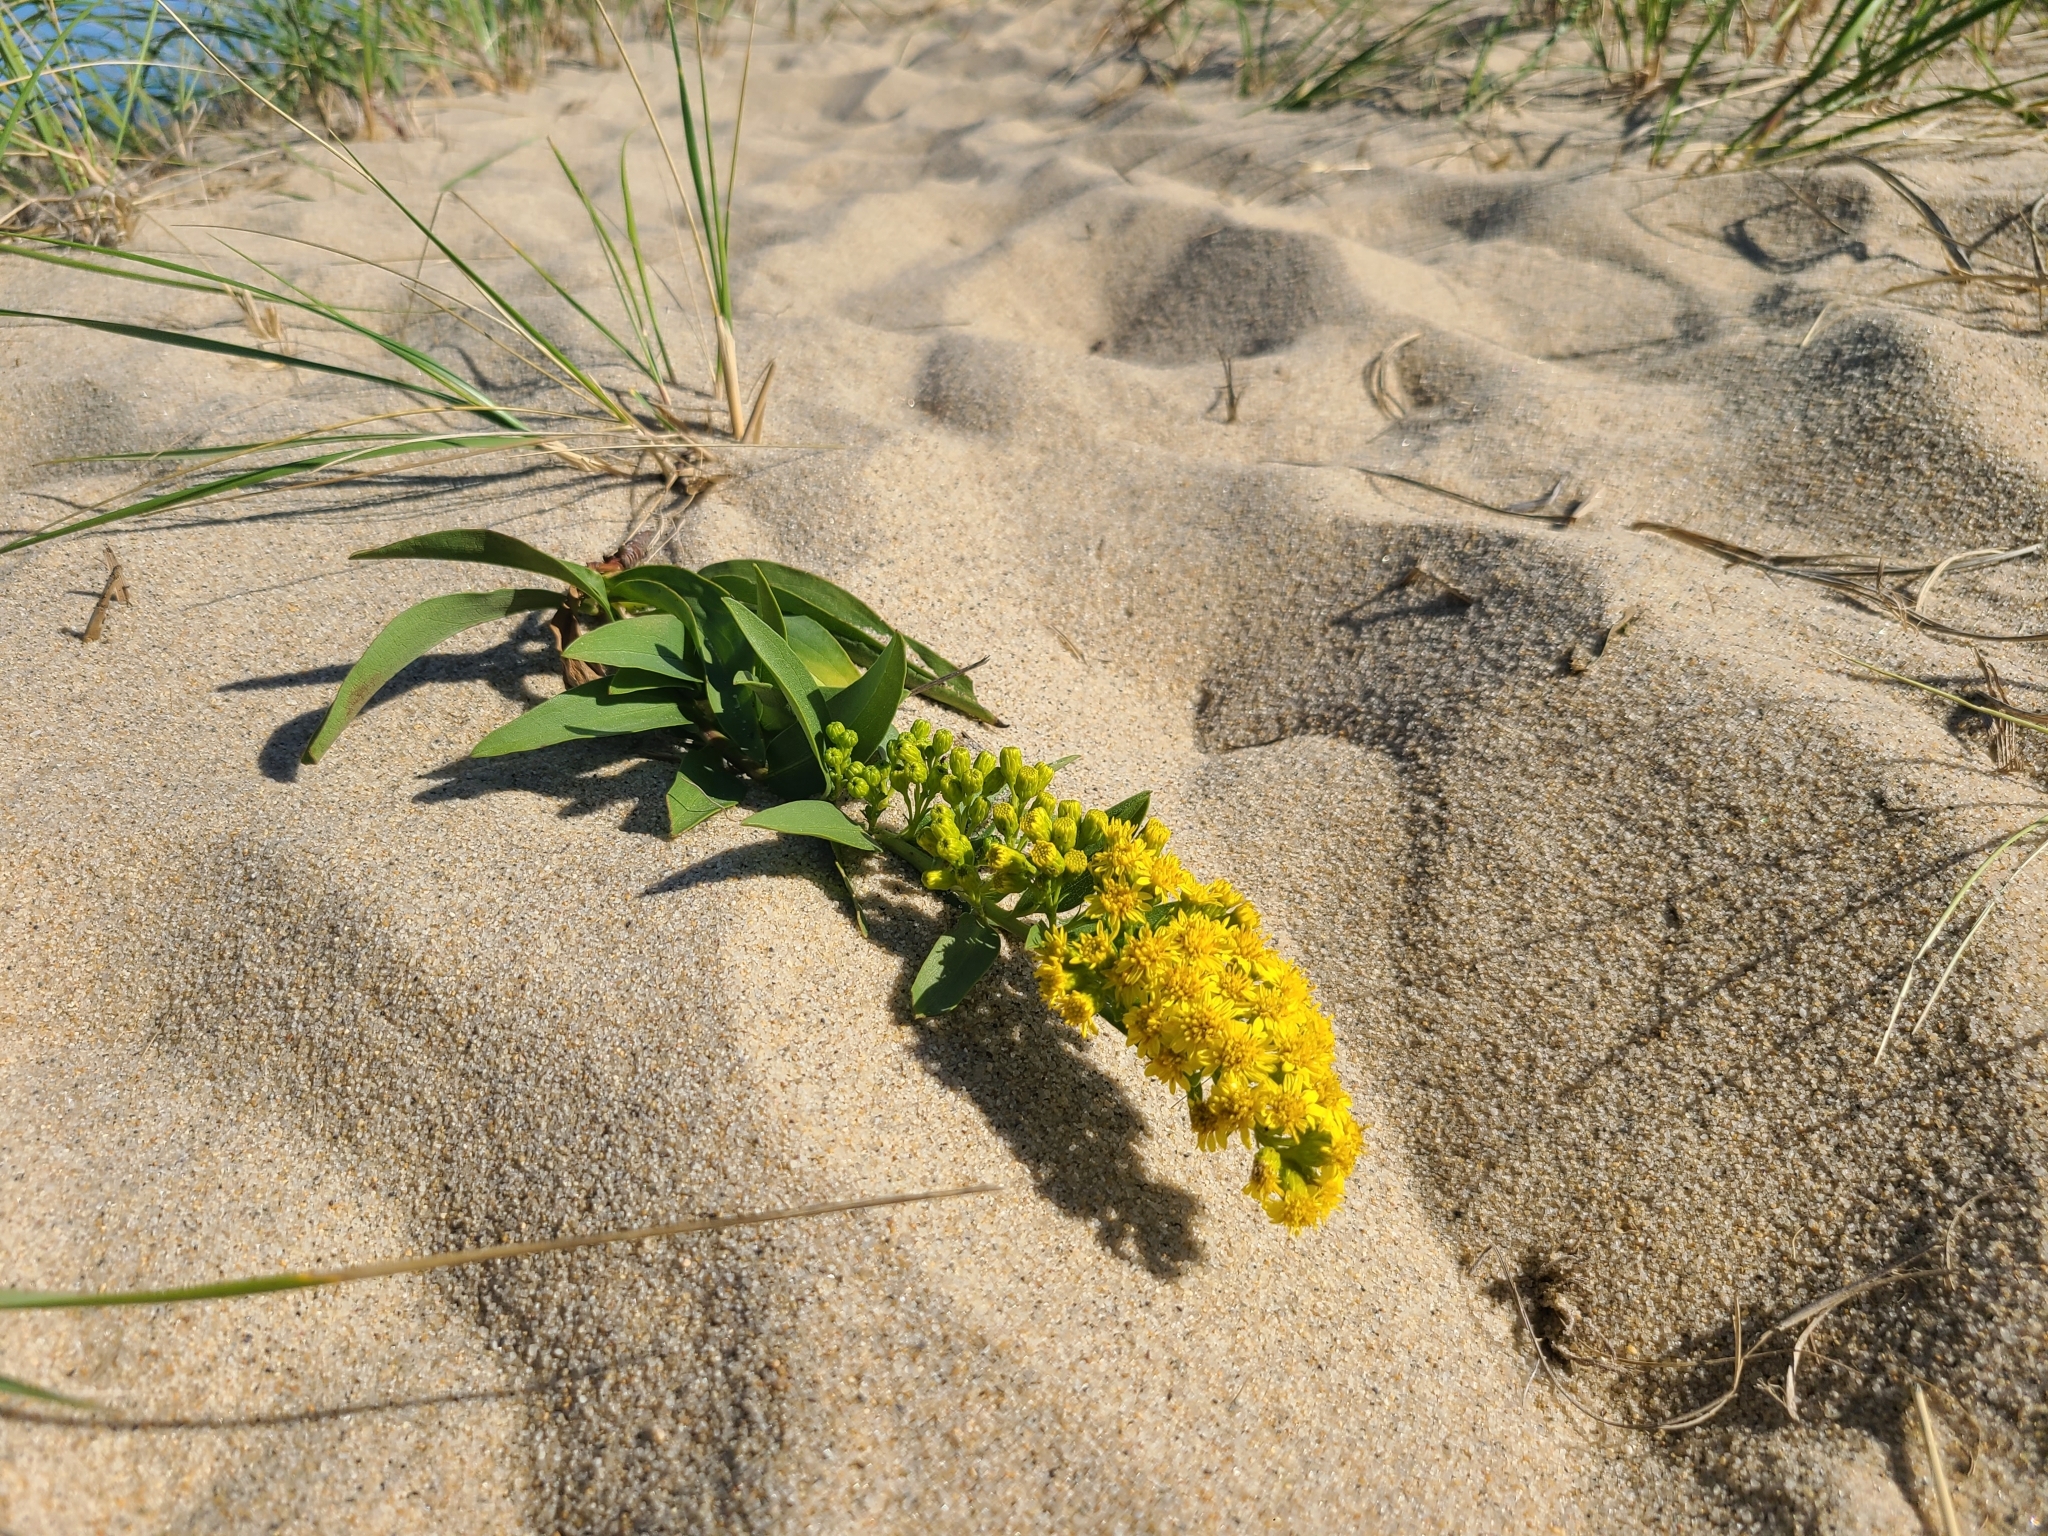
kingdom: Plantae
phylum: Tracheophyta
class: Magnoliopsida
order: Asterales
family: Asteraceae
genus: Solidago
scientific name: Solidago sempervirens
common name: Salt-marsh goldenrod
